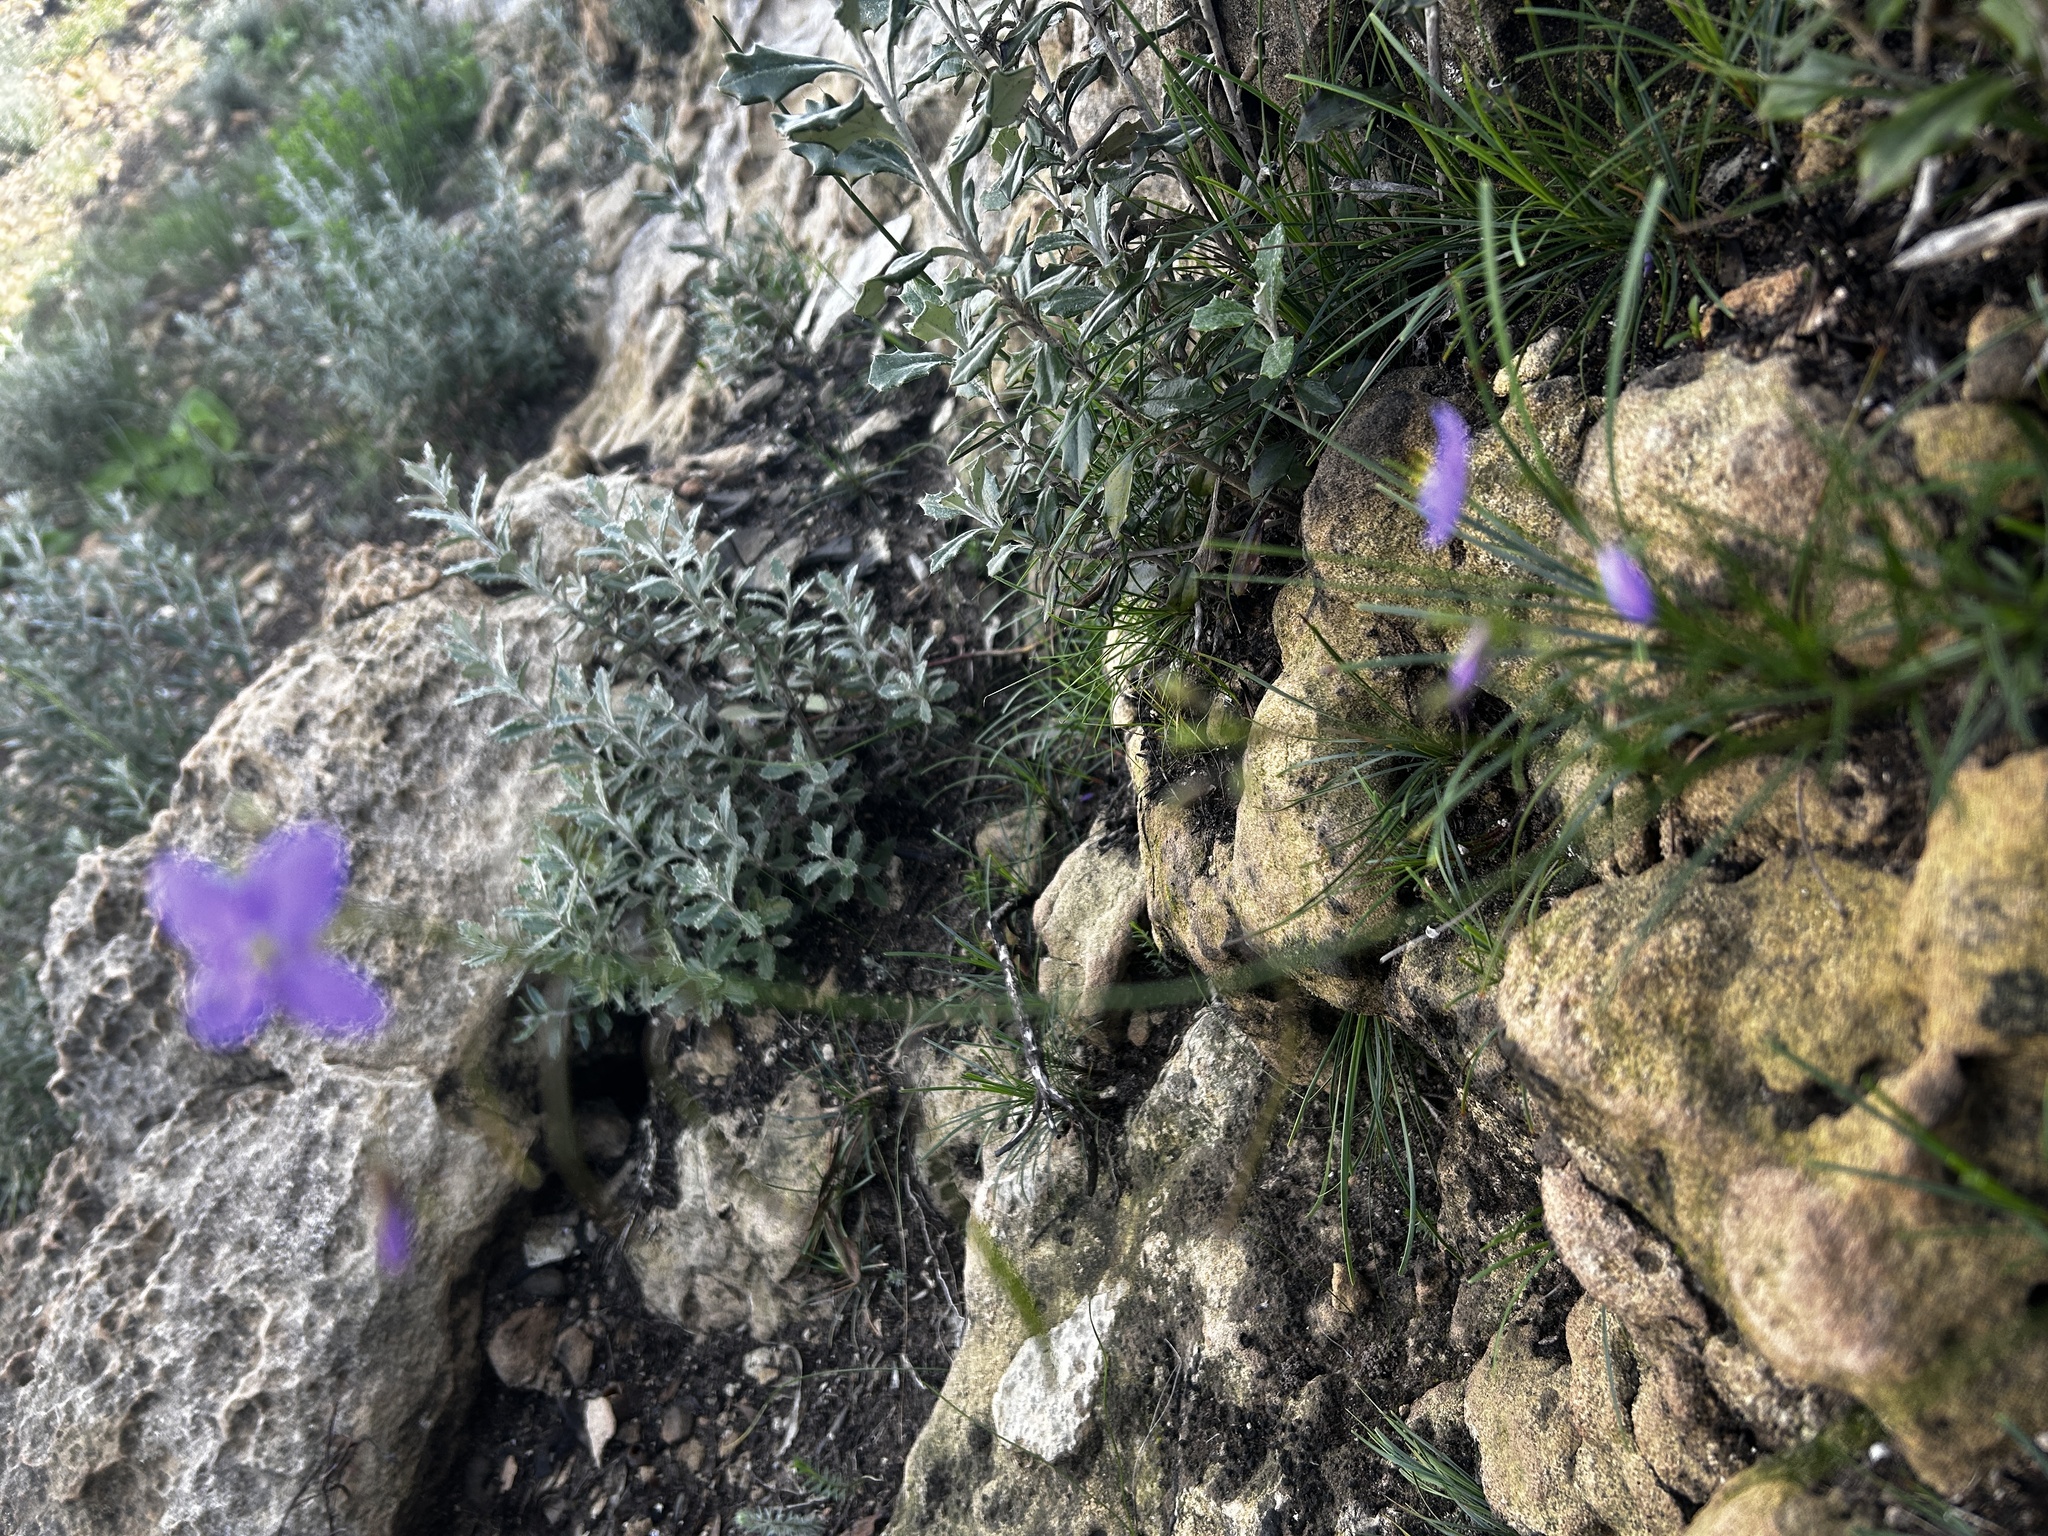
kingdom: Plantae
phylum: Tracheophyta
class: Magnoliopsida
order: Brassicales
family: Brassicaceae
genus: Heliophila
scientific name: Heliophila subulata
